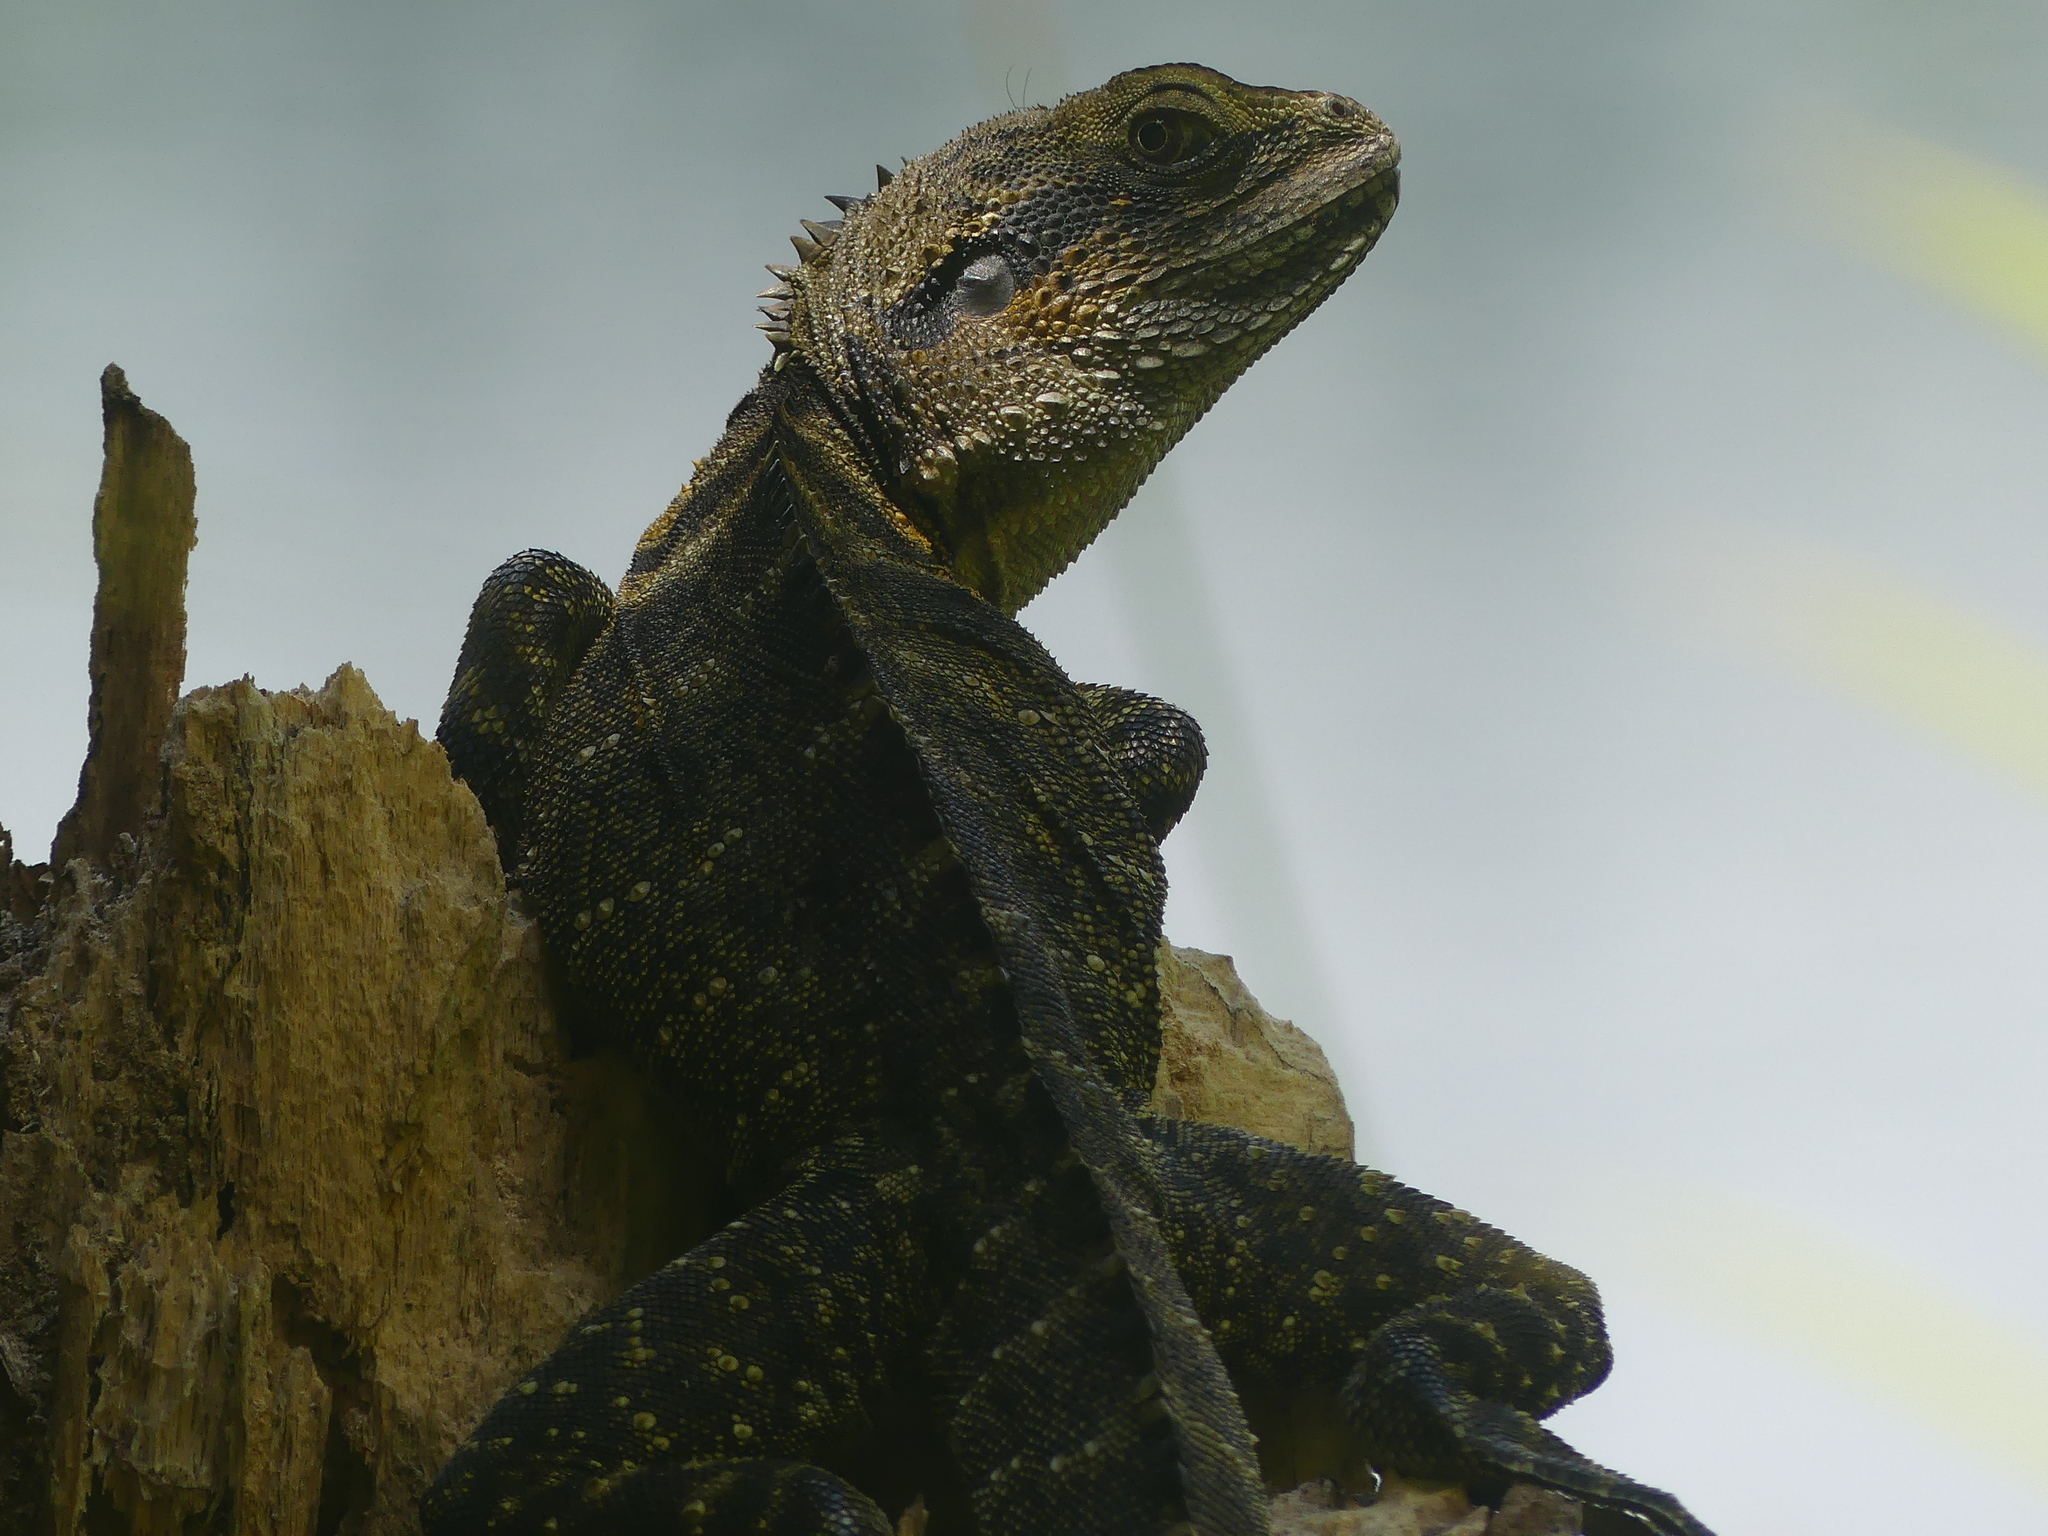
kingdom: Animalia
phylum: Chordata
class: Squamata
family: Agamidae
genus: Intellagama
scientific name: Intellagama lesueurii
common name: Eastern water dragon
